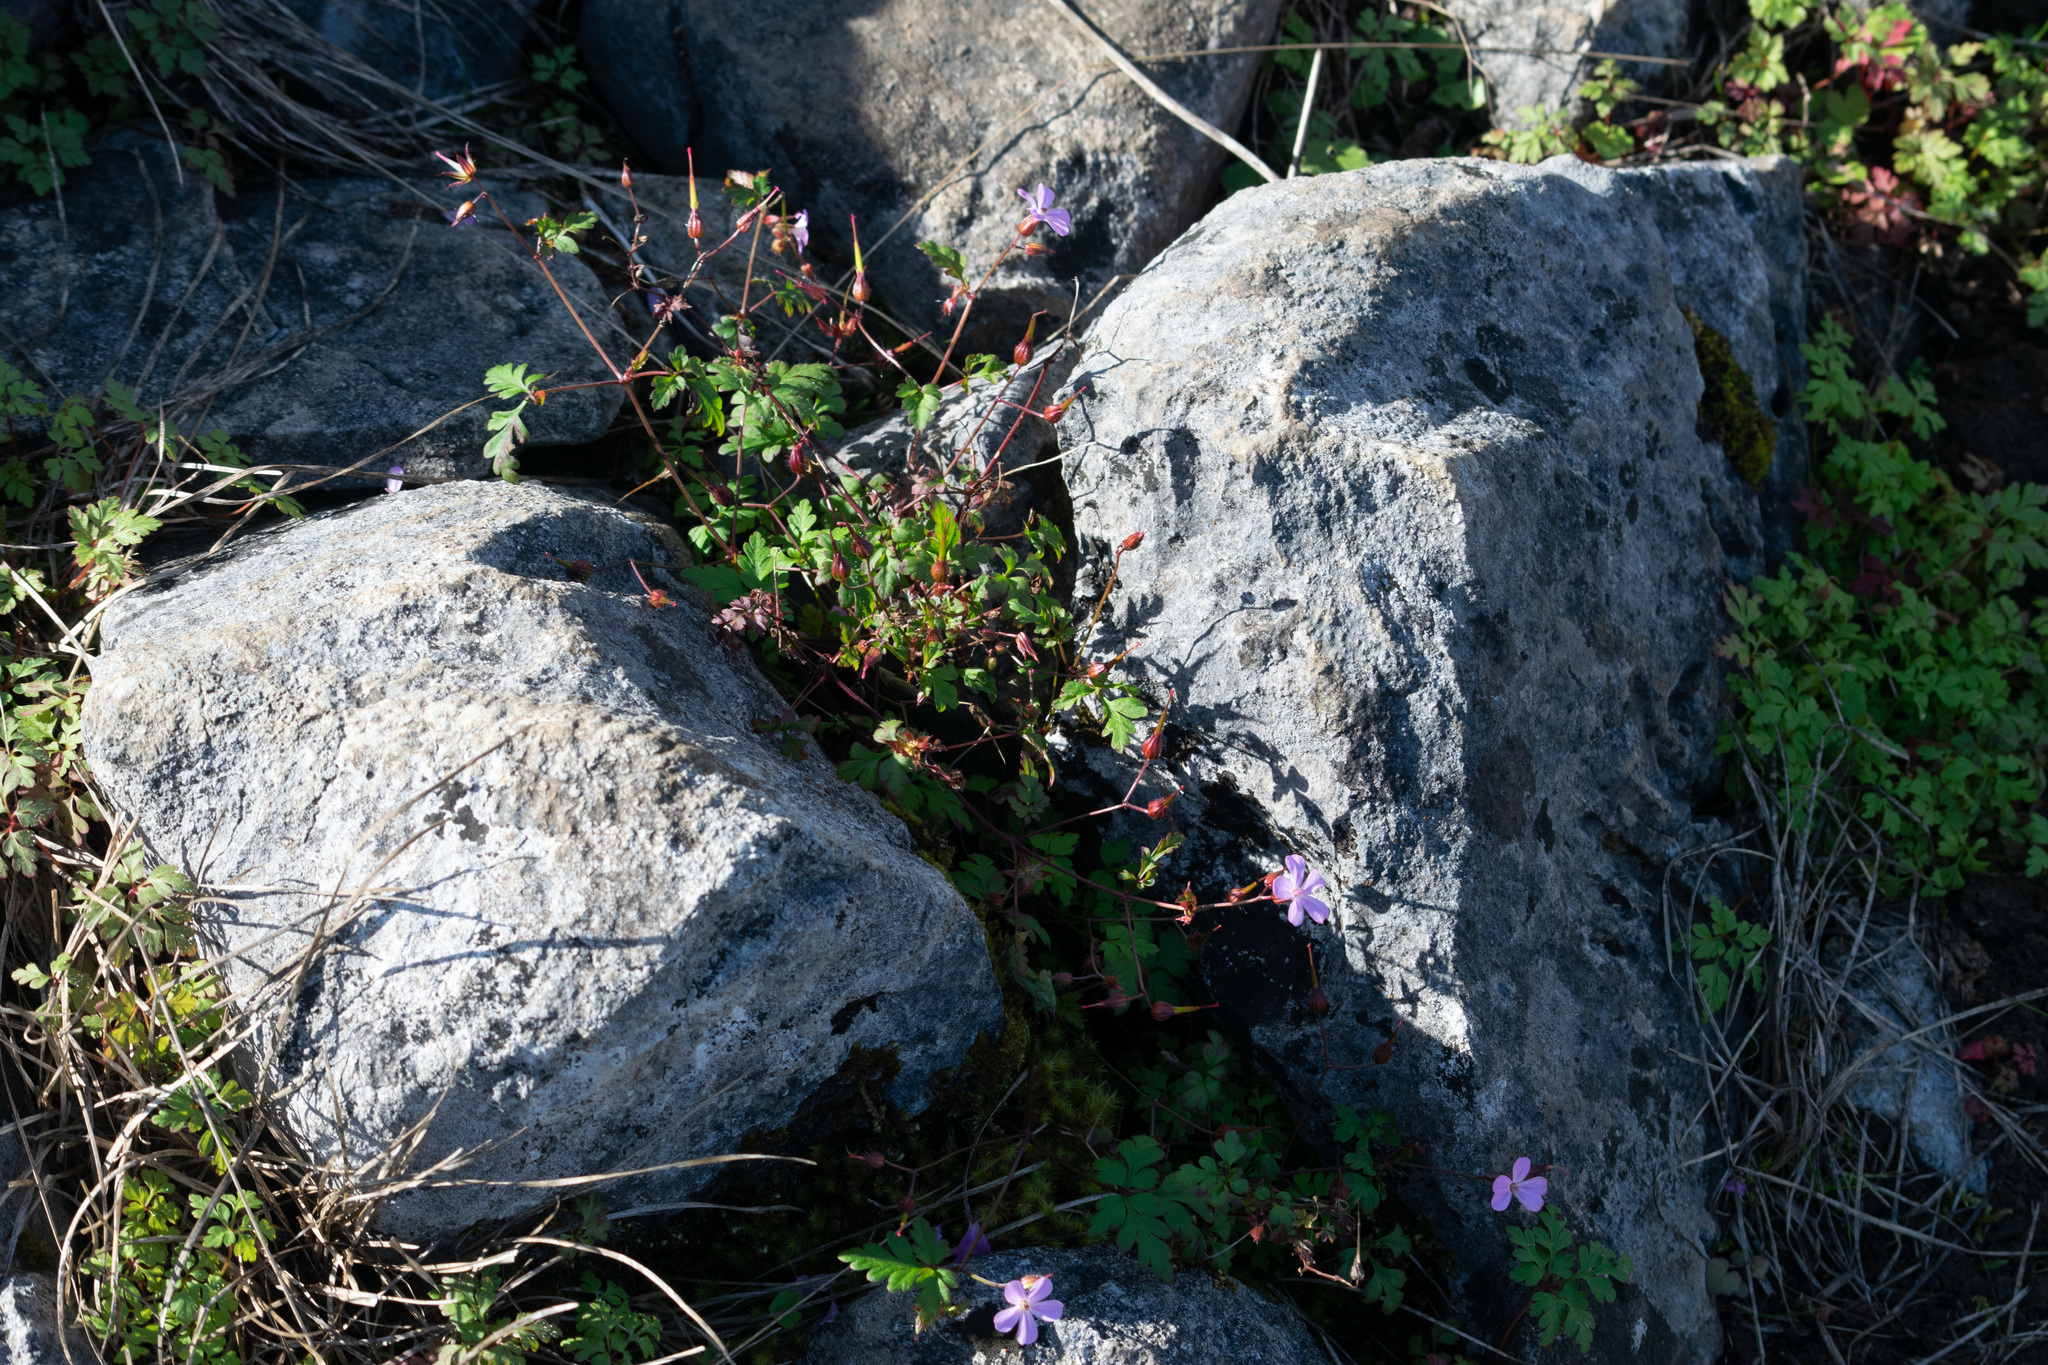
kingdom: Plantae
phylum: Tracheophyta
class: Magnoliopsida
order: Geraniales
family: Geraniaceae
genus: Geranium
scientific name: Geranium robertianum
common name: Herb-robert
